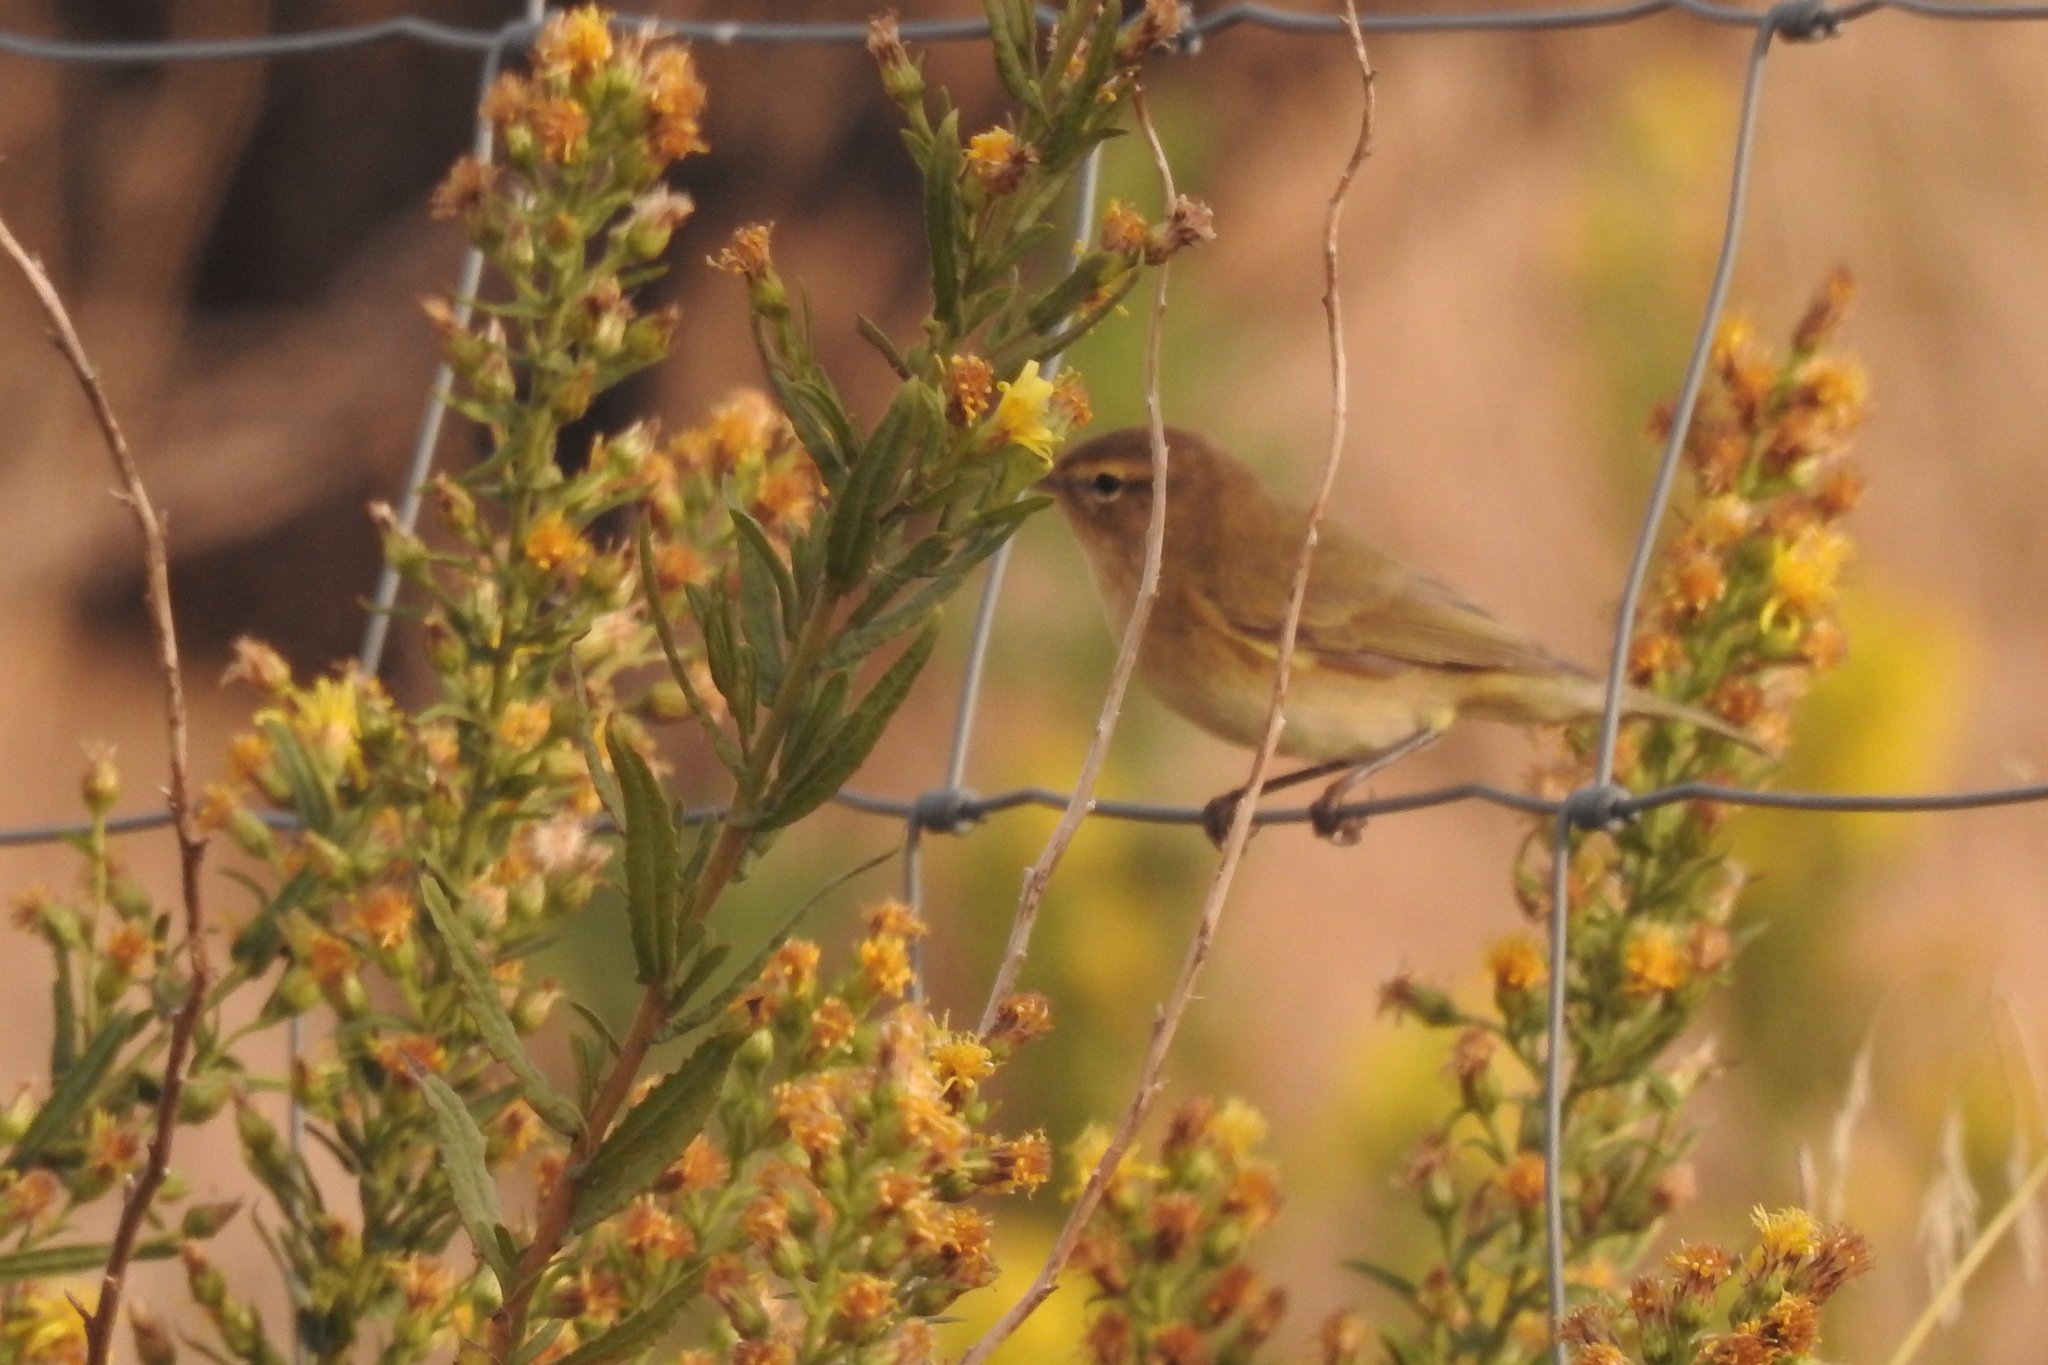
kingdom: Animalia
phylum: Chordata
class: Aves
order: Passeriformes
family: Phylloscopidae
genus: Phylloscopus
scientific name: Phylloscopus collybita
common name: Common chiffchaff
